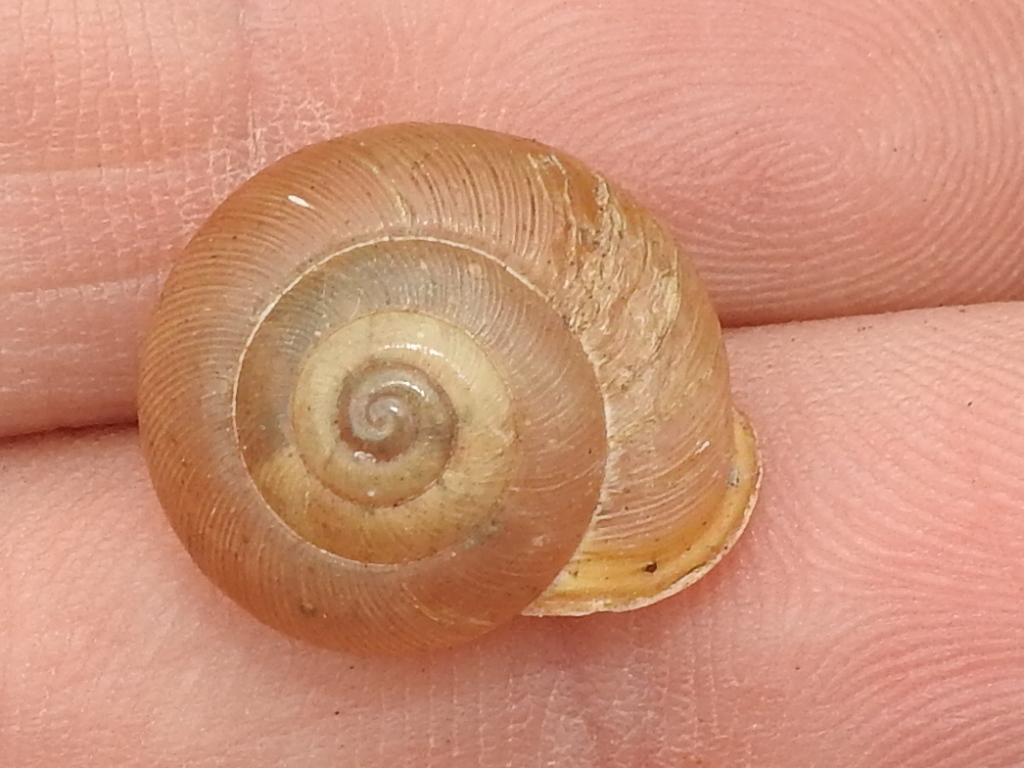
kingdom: Animalia
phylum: Mollusca
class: Gastropoda
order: Stylommatophora
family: Polygyridae
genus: Mesodon
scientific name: Mesodon thyroidus
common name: White-lip globe
